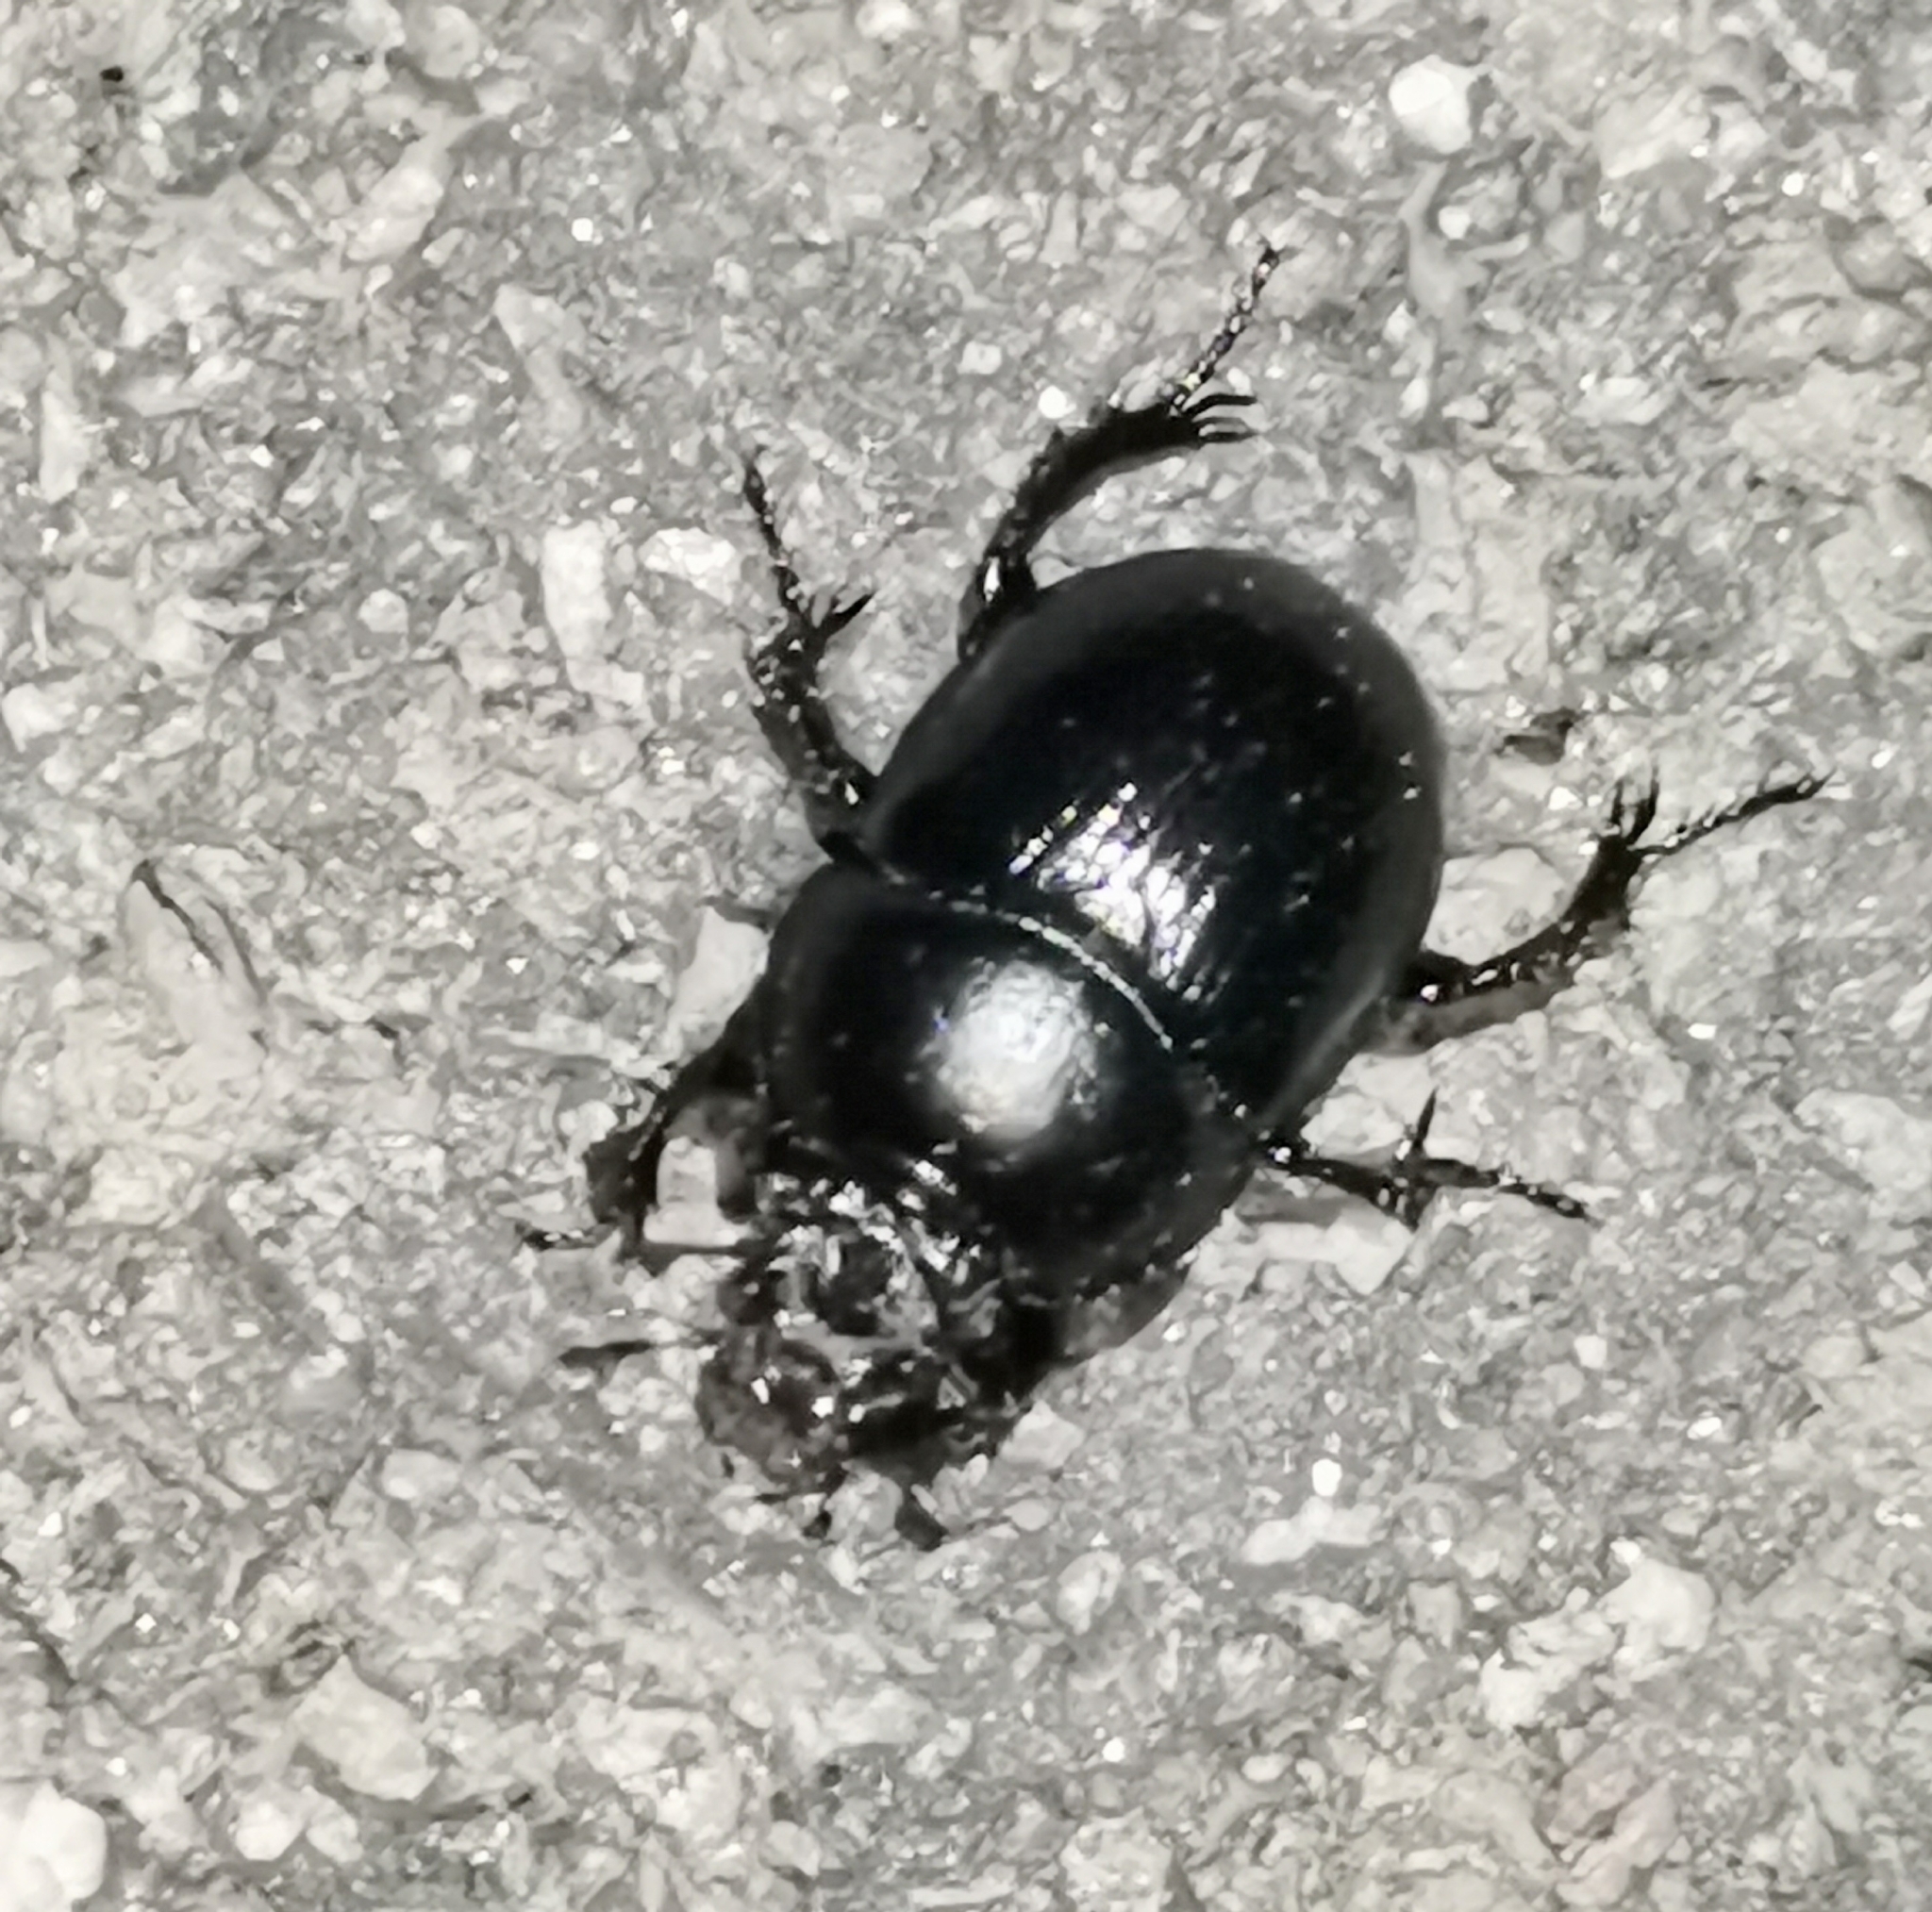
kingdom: Animalia
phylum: Arthropoda
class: Insecta
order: Coleoptera
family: Geotrupidae
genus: Anoplotrupes
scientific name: Anoplotrupes stercorosus
